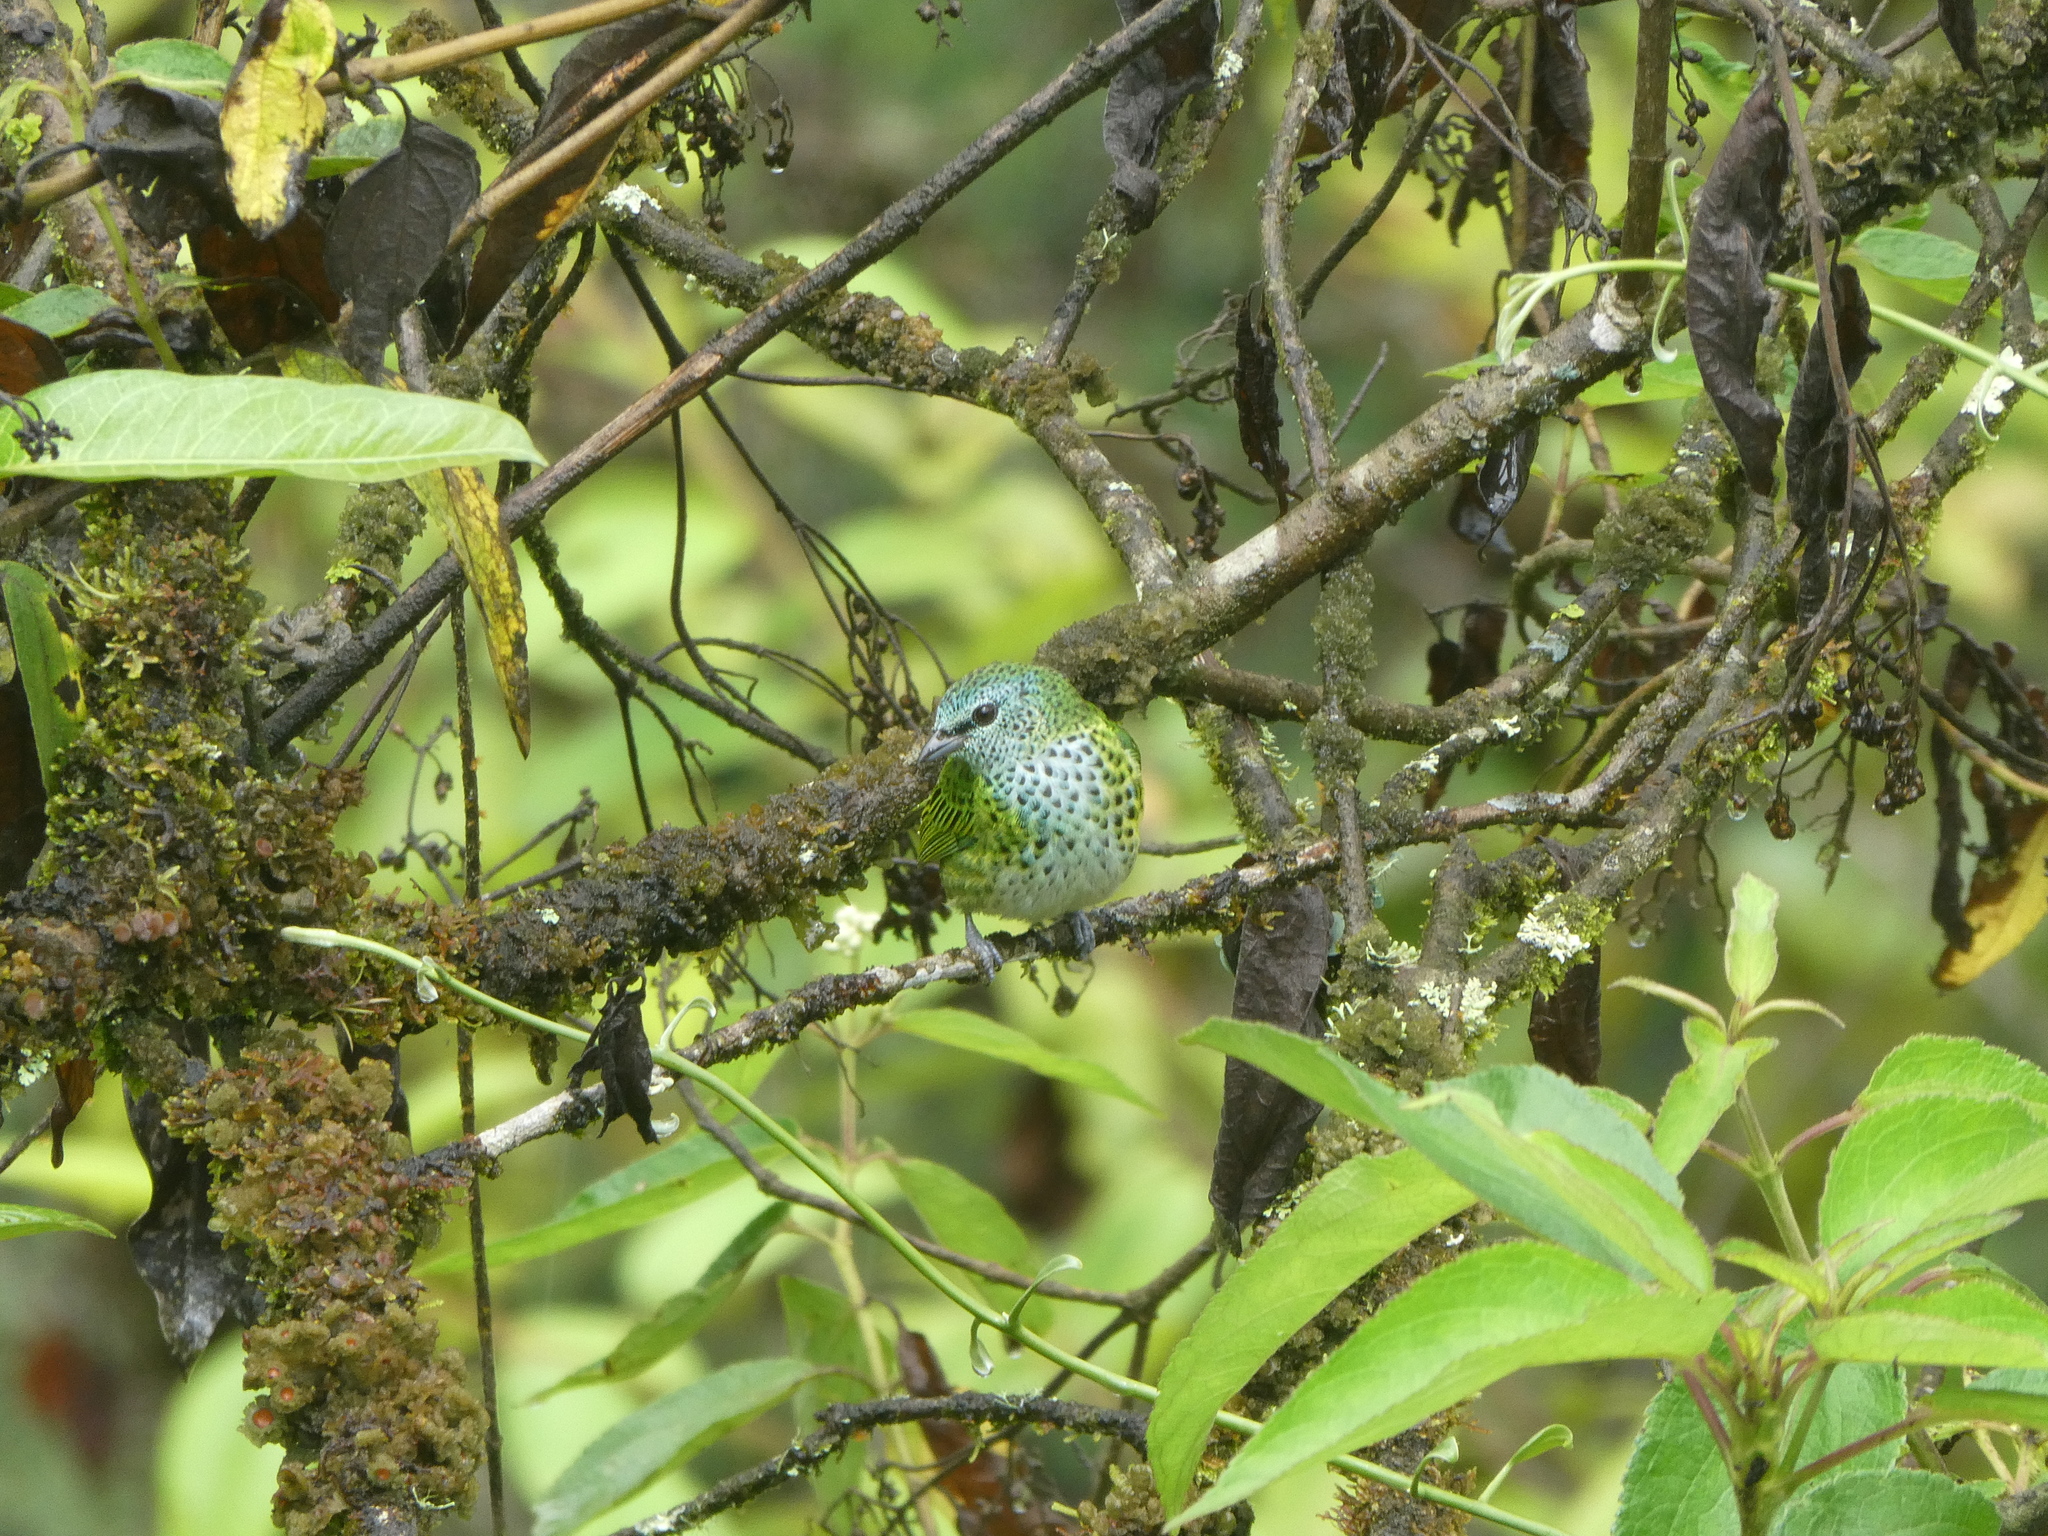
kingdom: Animalia
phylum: Chordata
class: Aves
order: Passeriformes
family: Thraupidae
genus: Ixothraupis
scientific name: Ixothraupis punctata
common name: Spotted tanager
